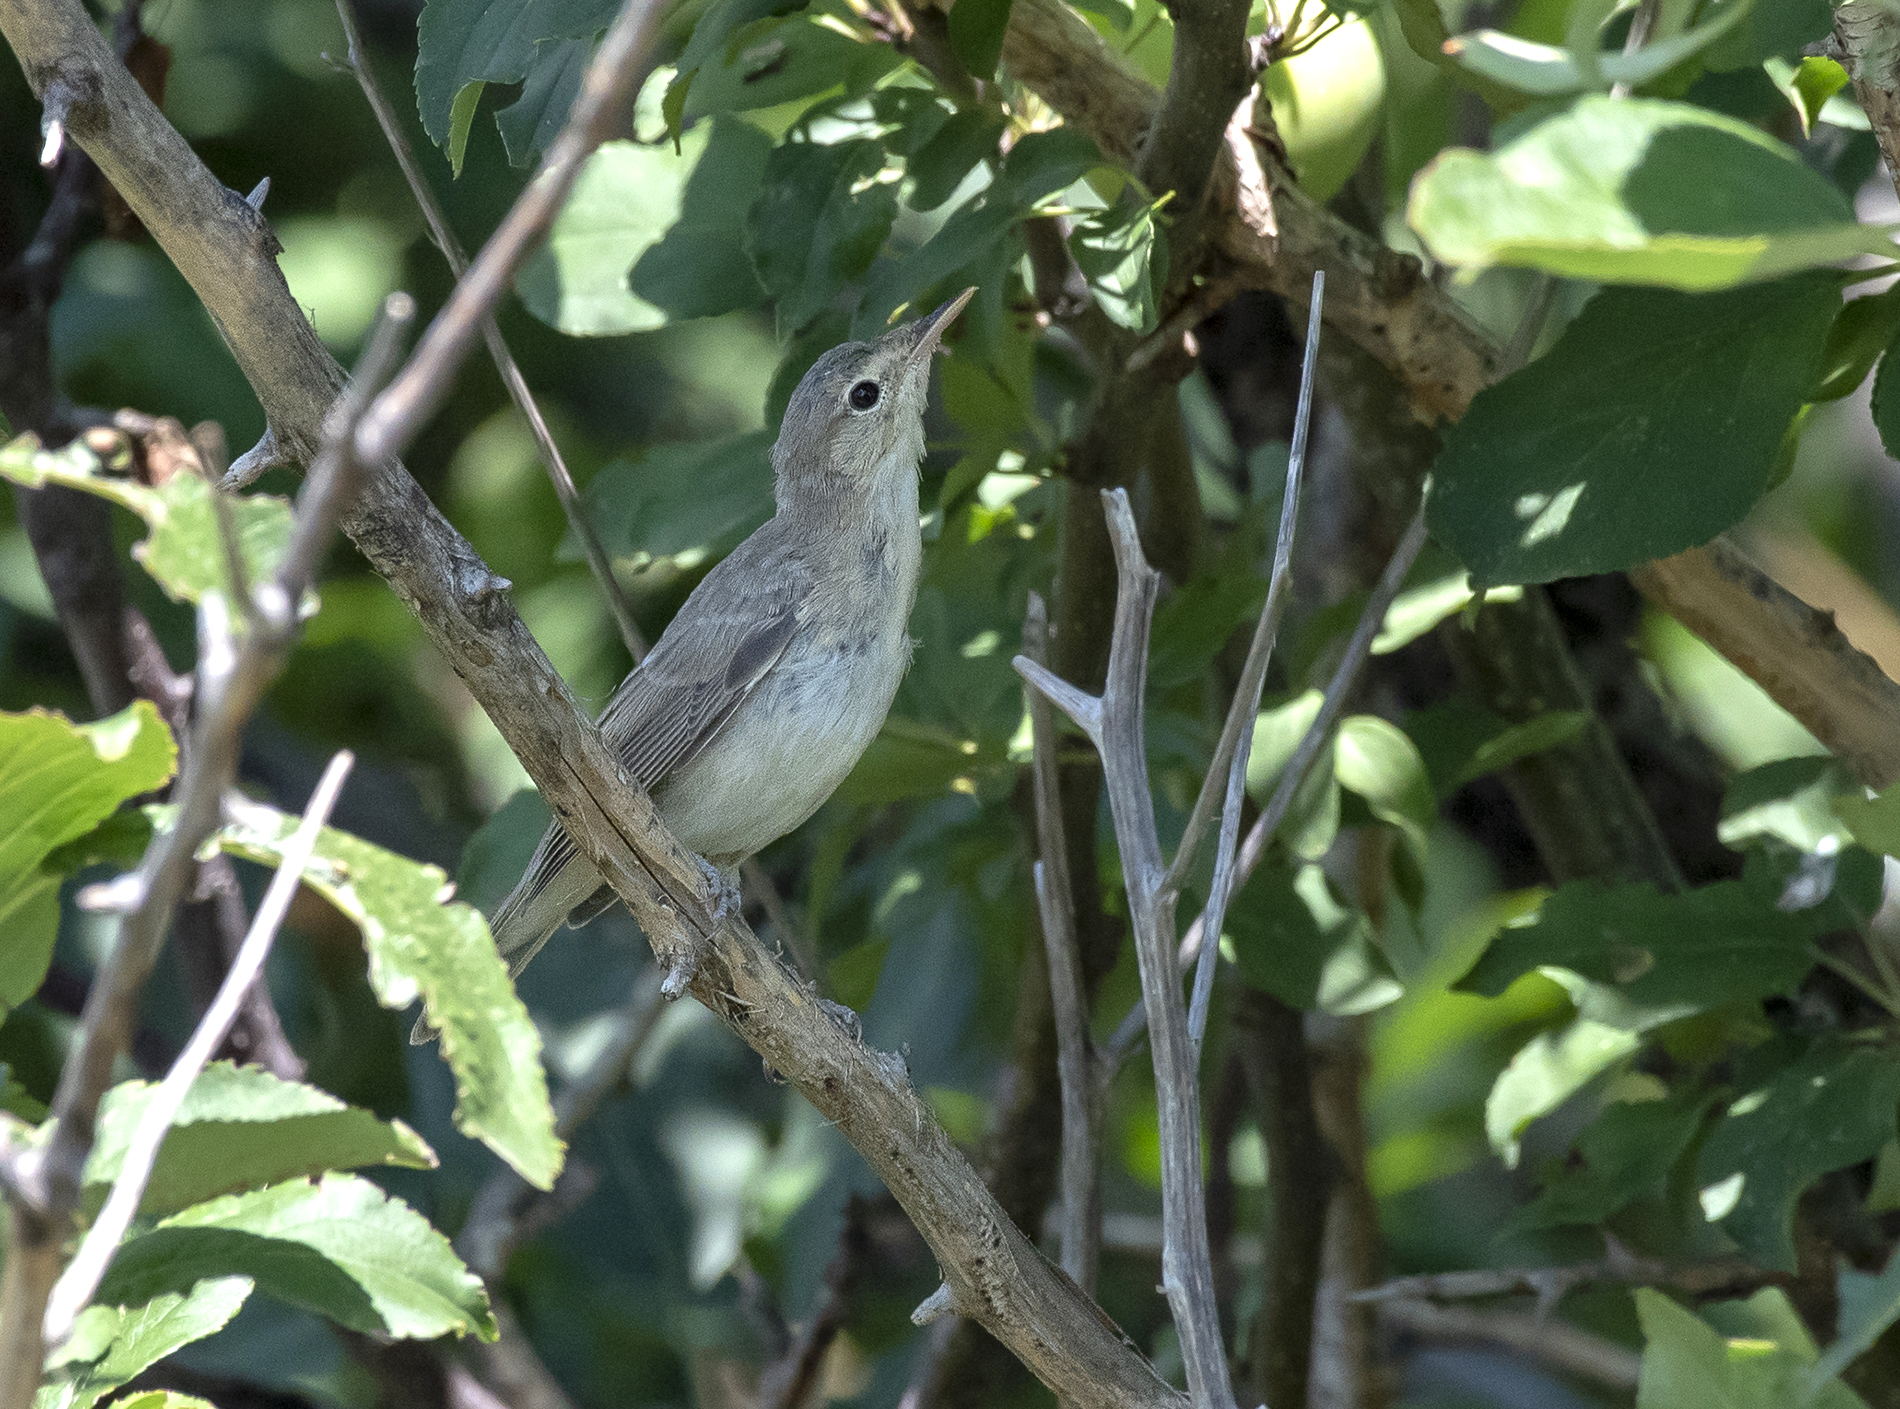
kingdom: Animalia
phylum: Chordata
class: Aves
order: Passeriformes
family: Acrocephalidae
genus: Iduna
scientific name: Iduna pallida
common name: Eastern olivaceous warbler
